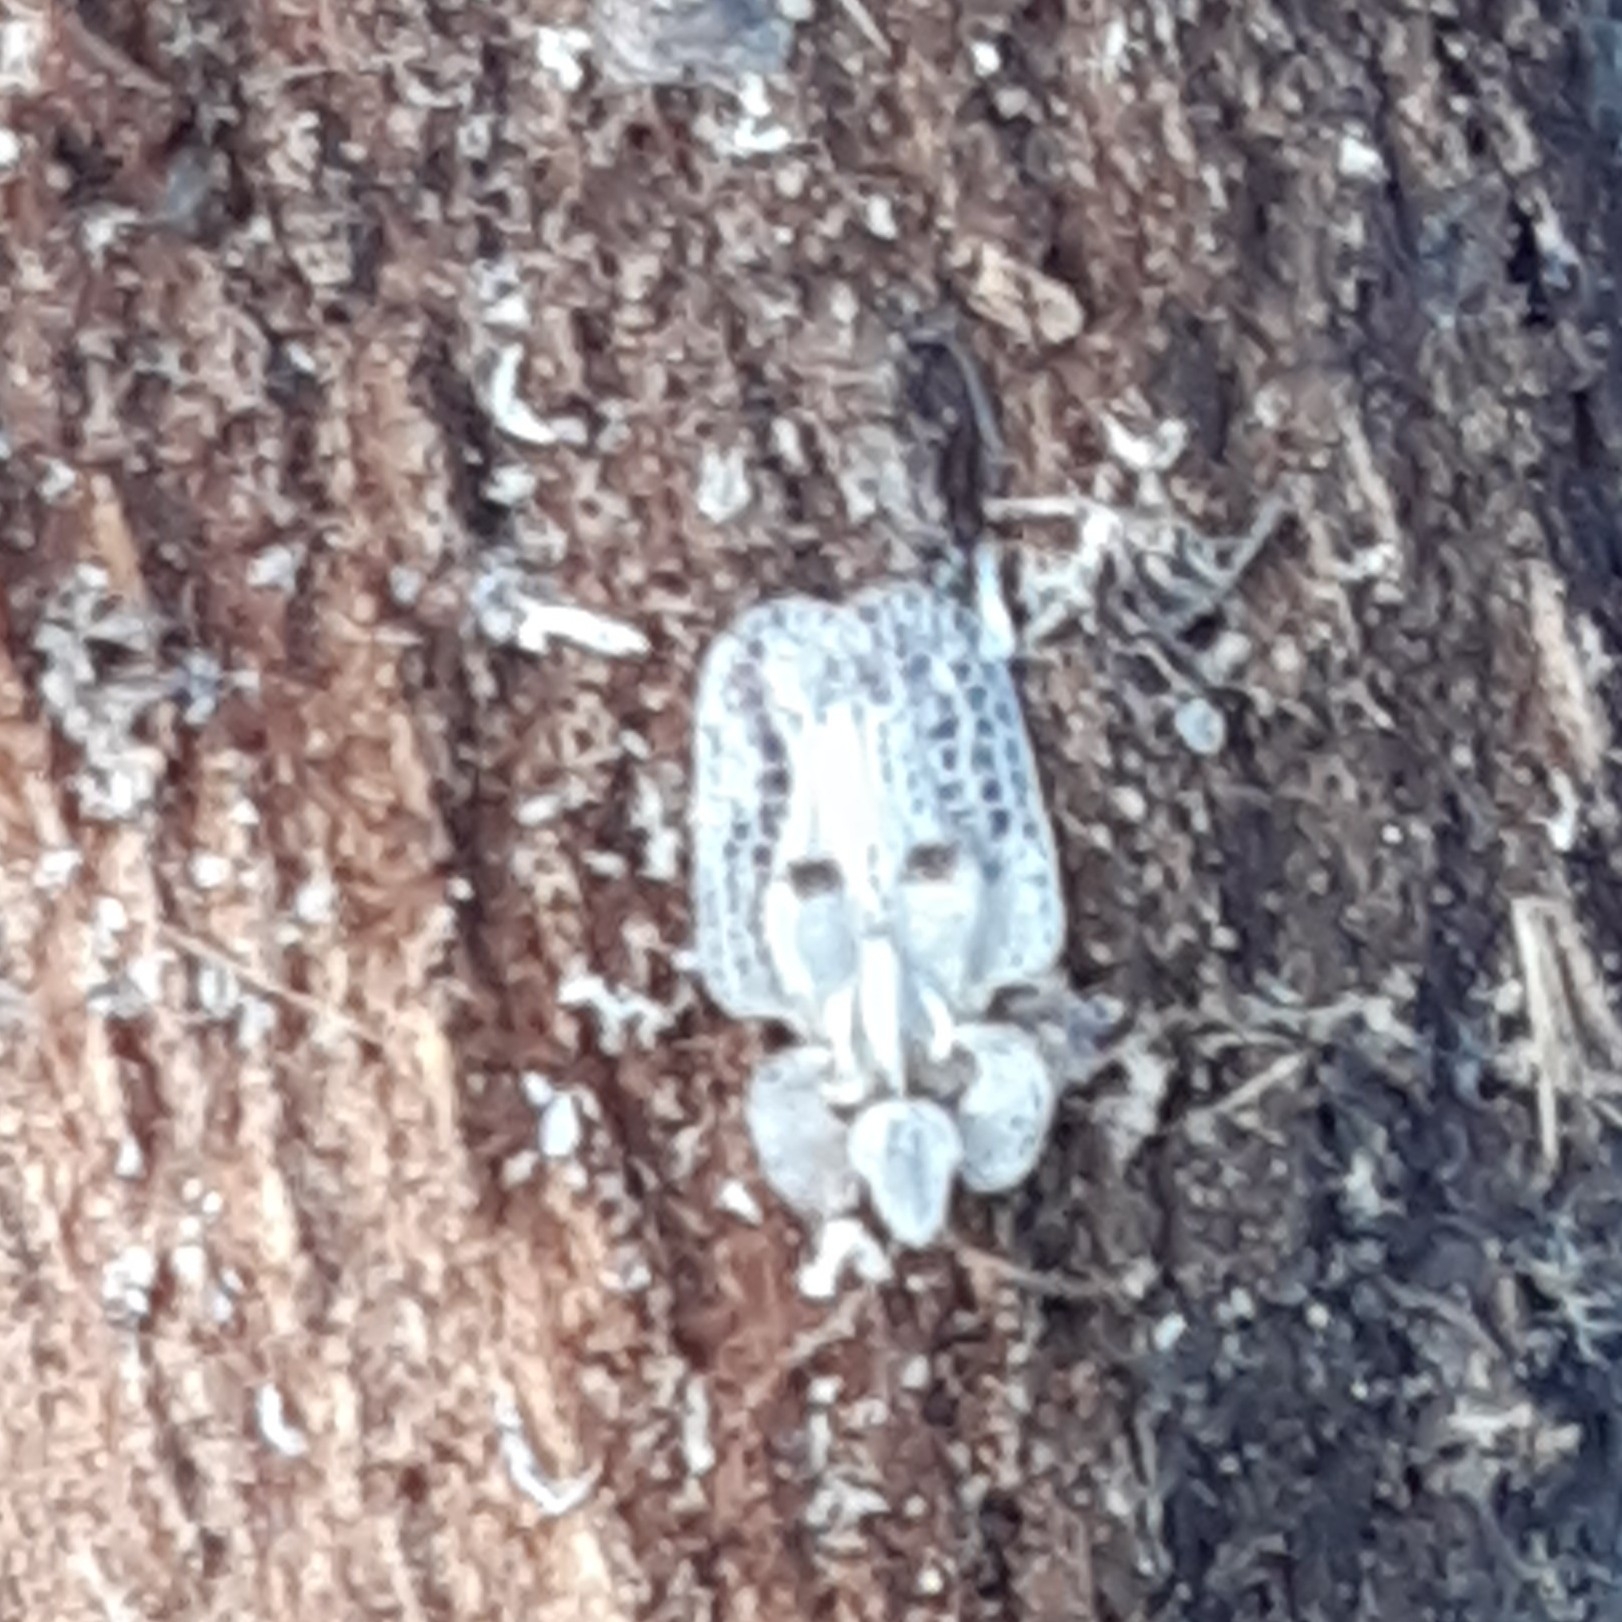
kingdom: Animalia
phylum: Arthropoda
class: Insecta
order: Hemiptera
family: Tingidae
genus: Corythucha
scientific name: Corythucha ciliata
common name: Sycamore lace bug
